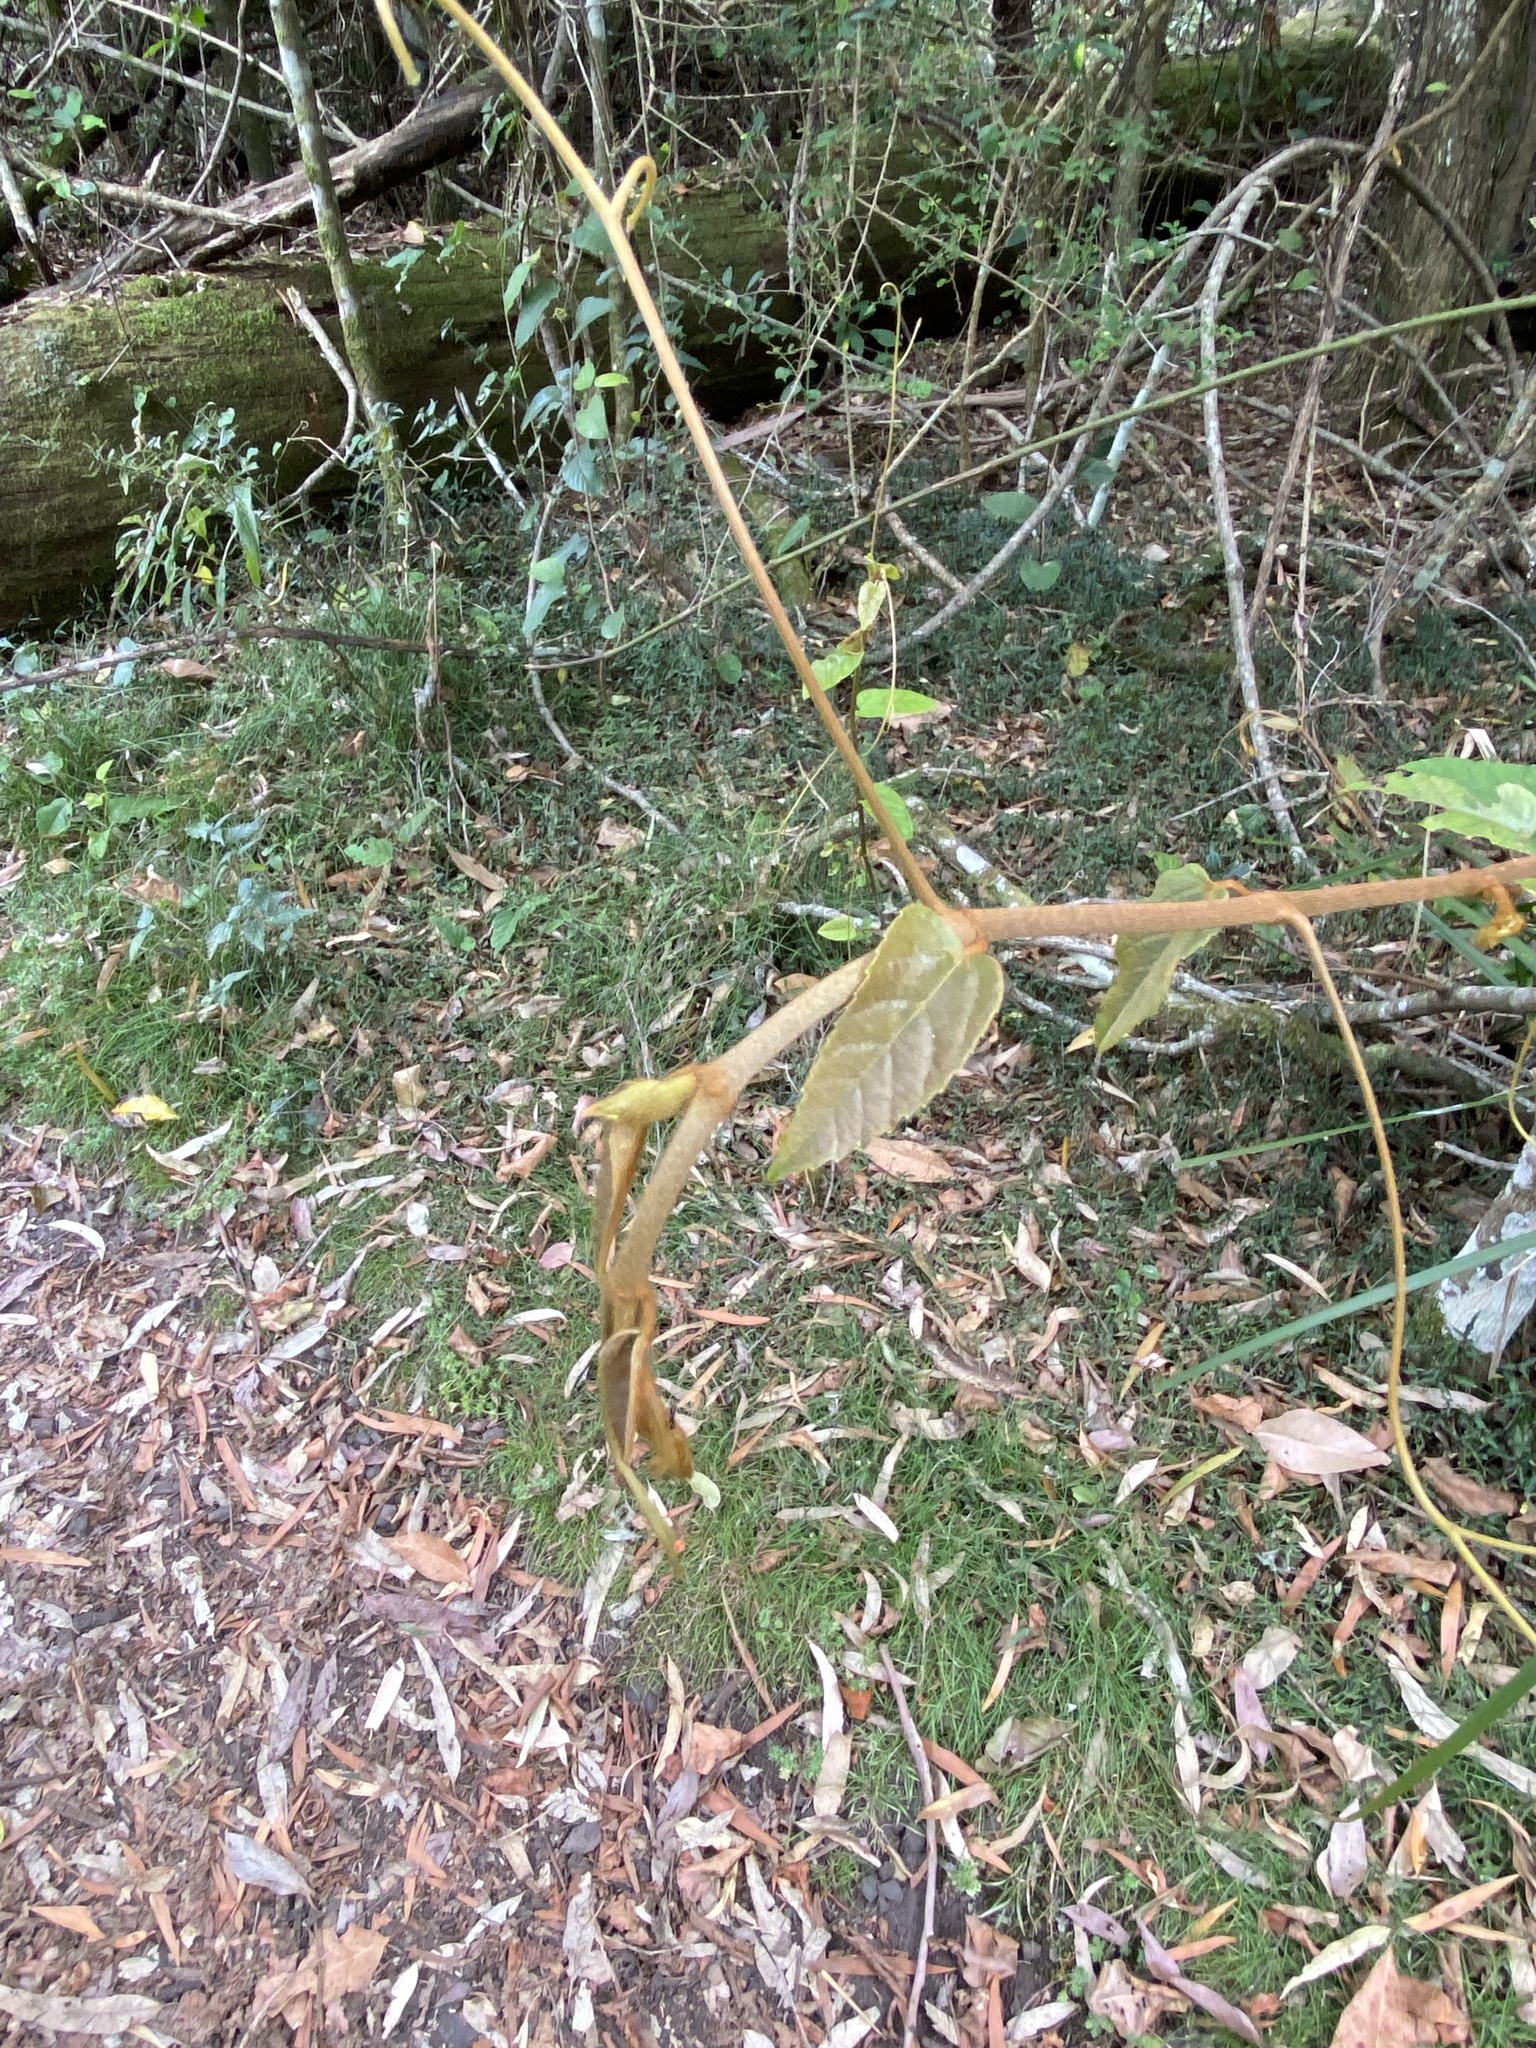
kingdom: Plantae
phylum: Tracheophyta
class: Magnoliopsida
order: Vitales
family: Vitaceae
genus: Cissus
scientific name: Cissus antarctica
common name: Kangaroo vine
